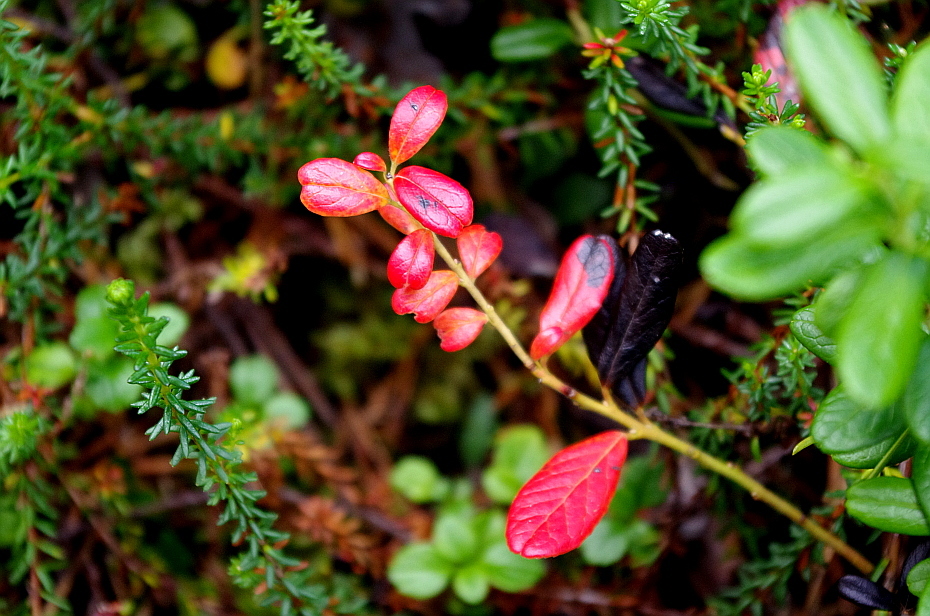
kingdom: Plantae
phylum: Tracheophyta
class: Magnoliopsida
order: Ericales
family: Ericaceae
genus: Vaccinium
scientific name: Vaccinium vitis-idaea
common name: Cowberry
